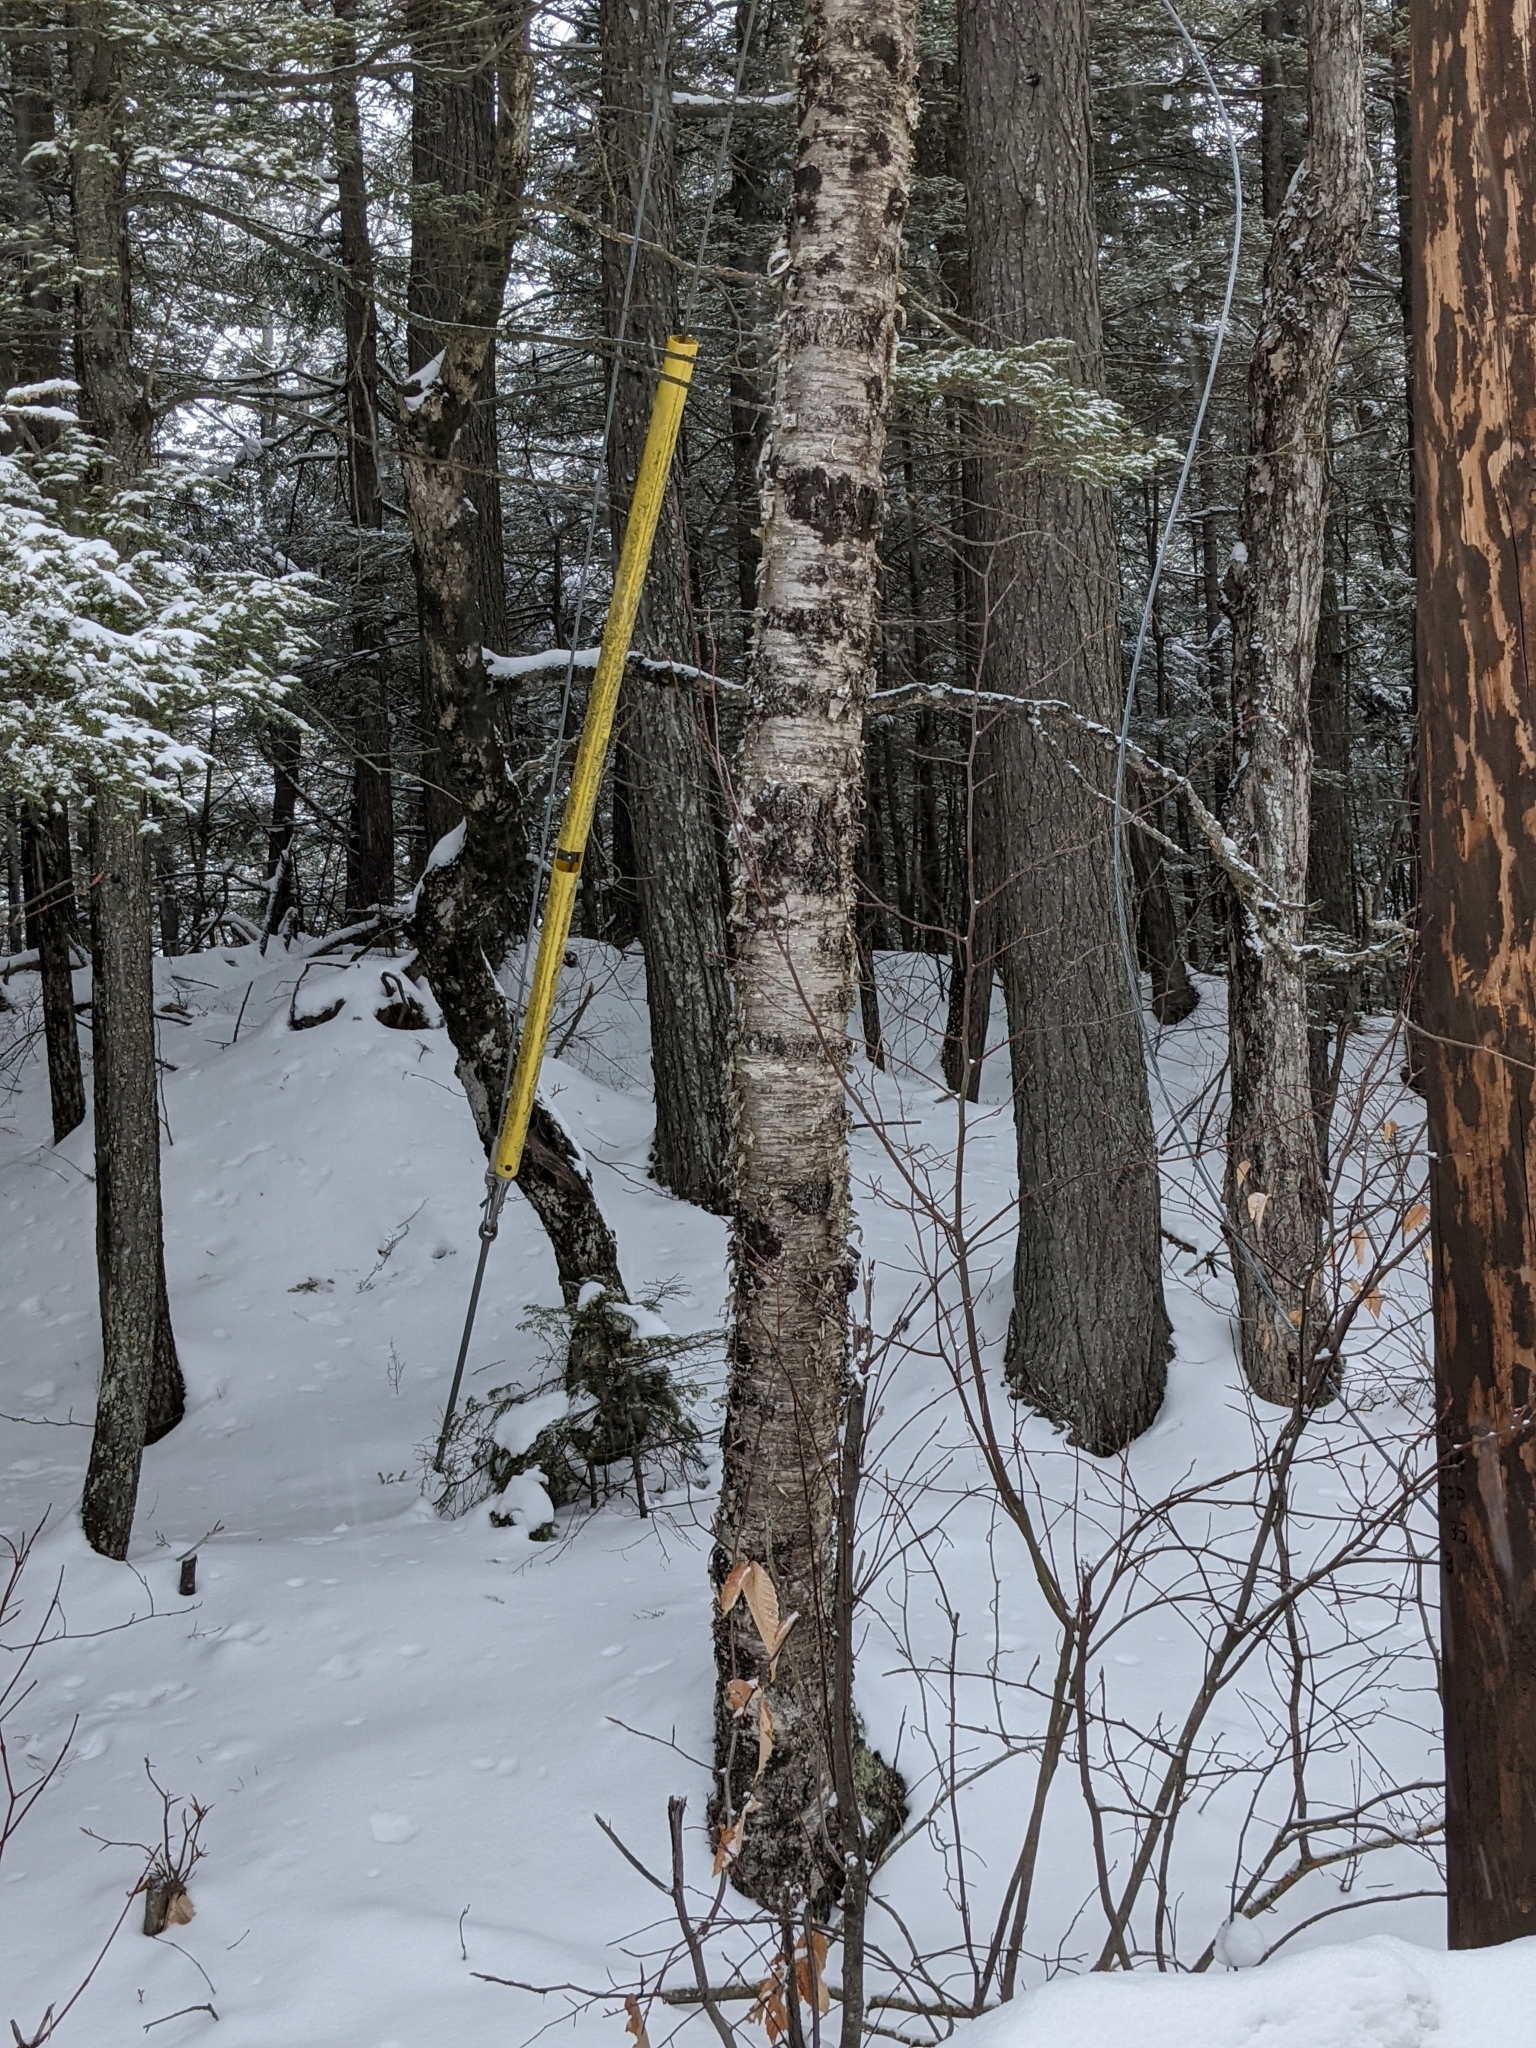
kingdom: Plantae
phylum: Tracheophyta
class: Magnoliopsida
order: Fagales
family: Betulaceae
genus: Betula
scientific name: Betula alleghaniensis
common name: Yellow birch
